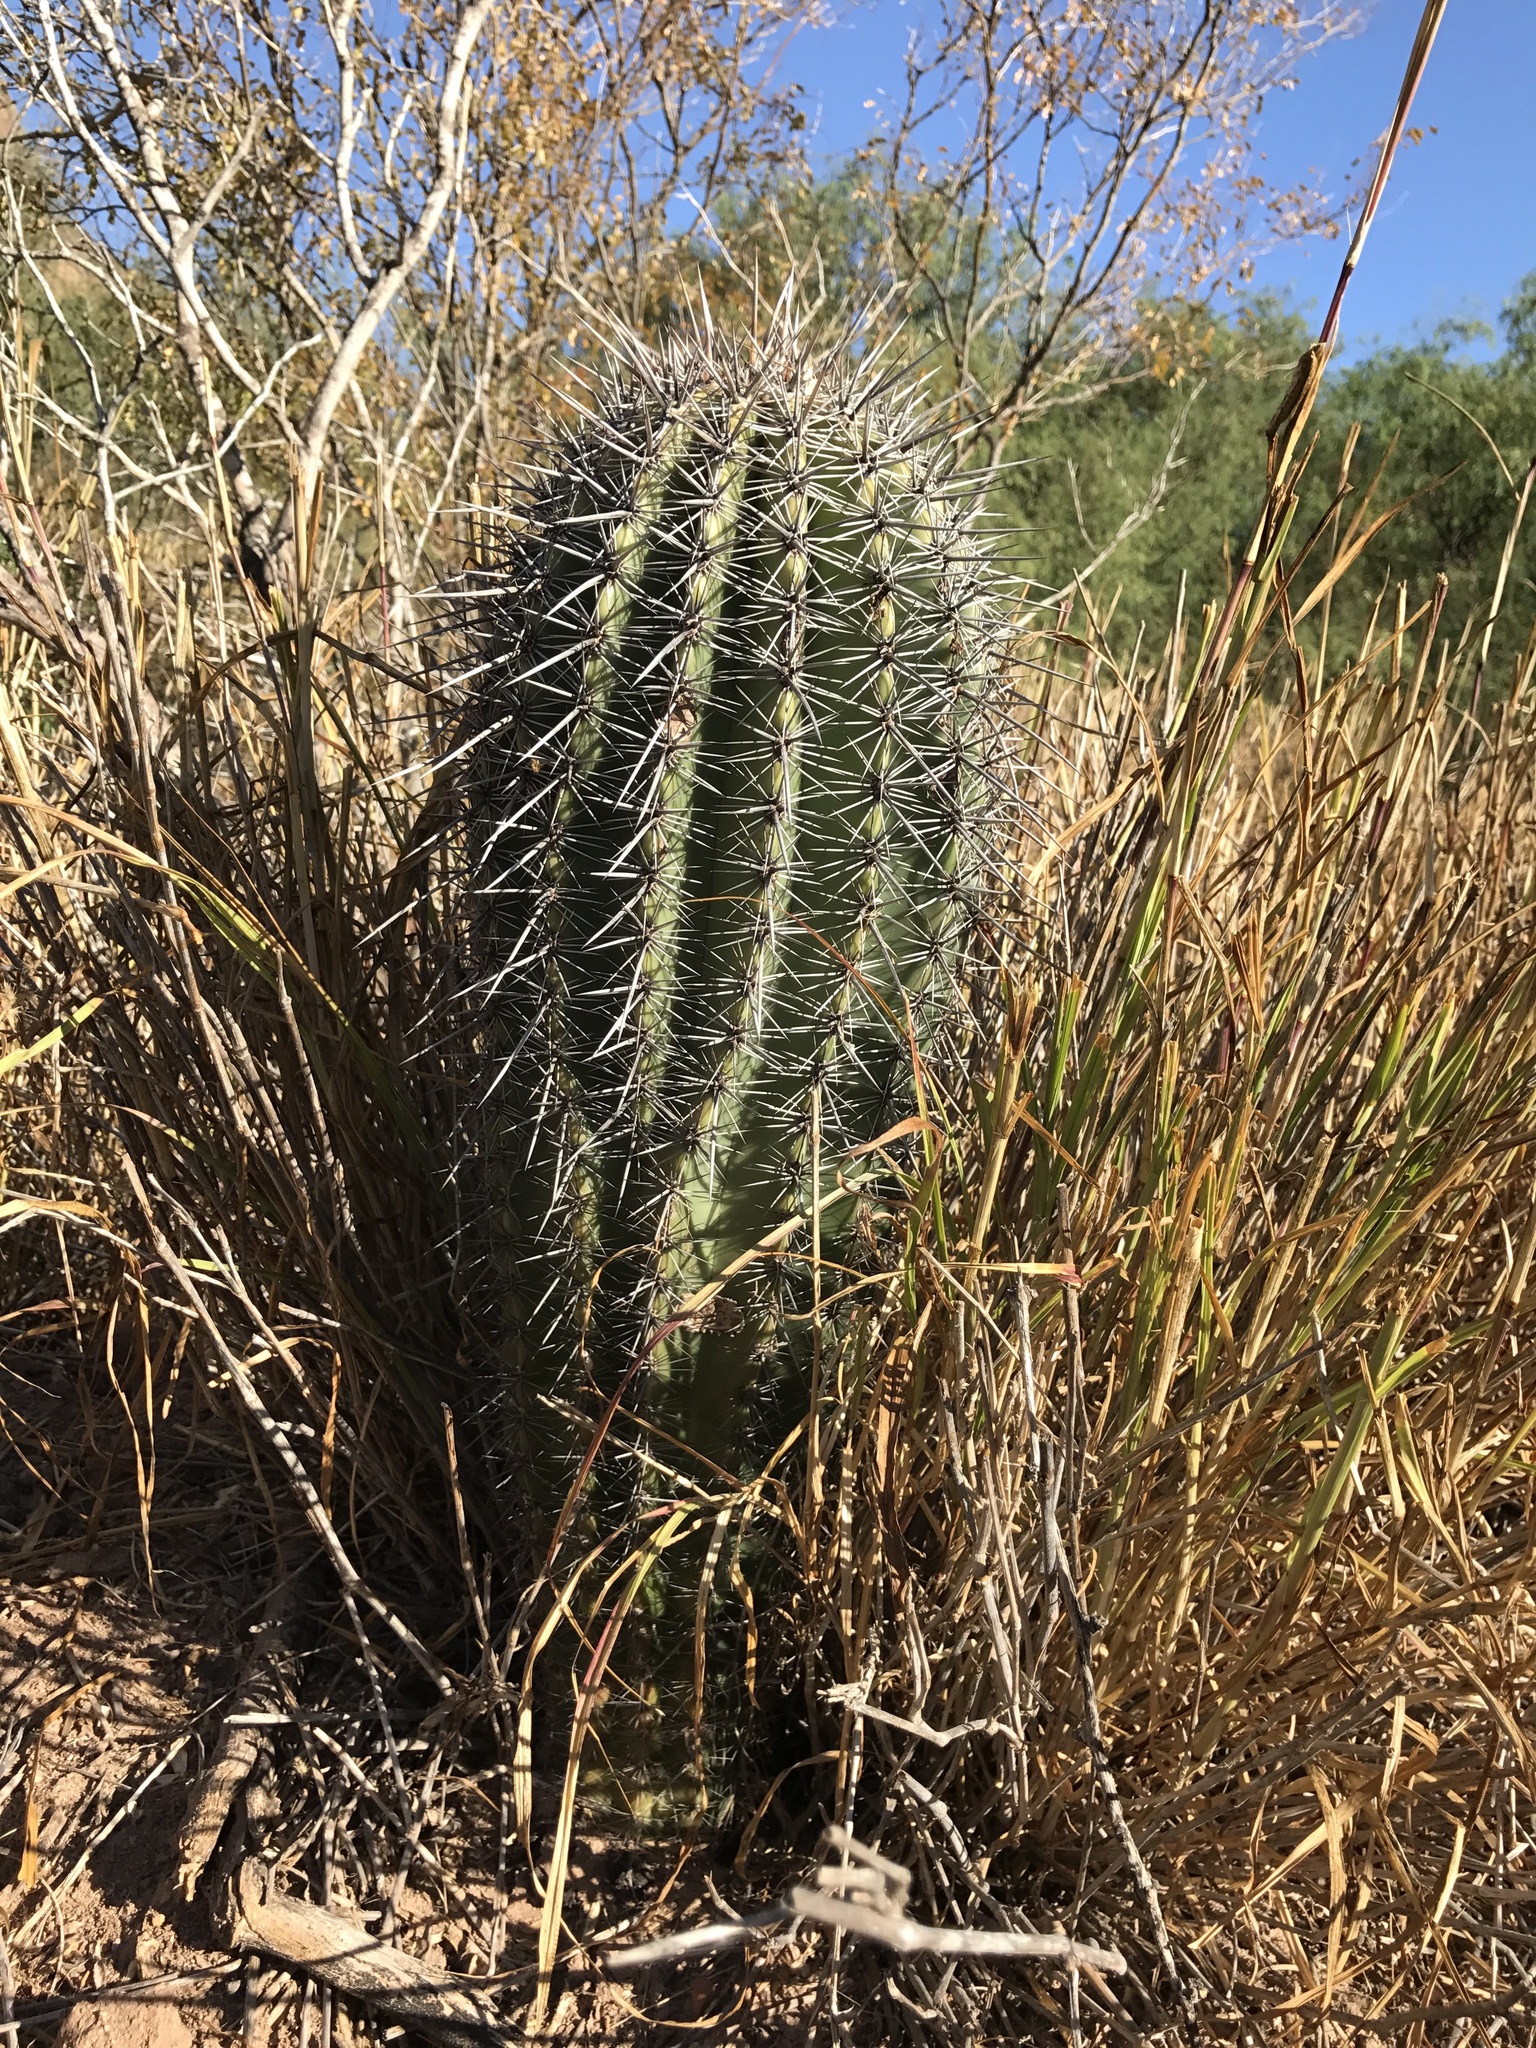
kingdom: Plantae
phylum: Tracheophyta
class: Magnoliopsida
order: Caryophyllales
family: Cactaceae
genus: Carnegiea
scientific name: Carnegiea gigantea
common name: Saguaro
